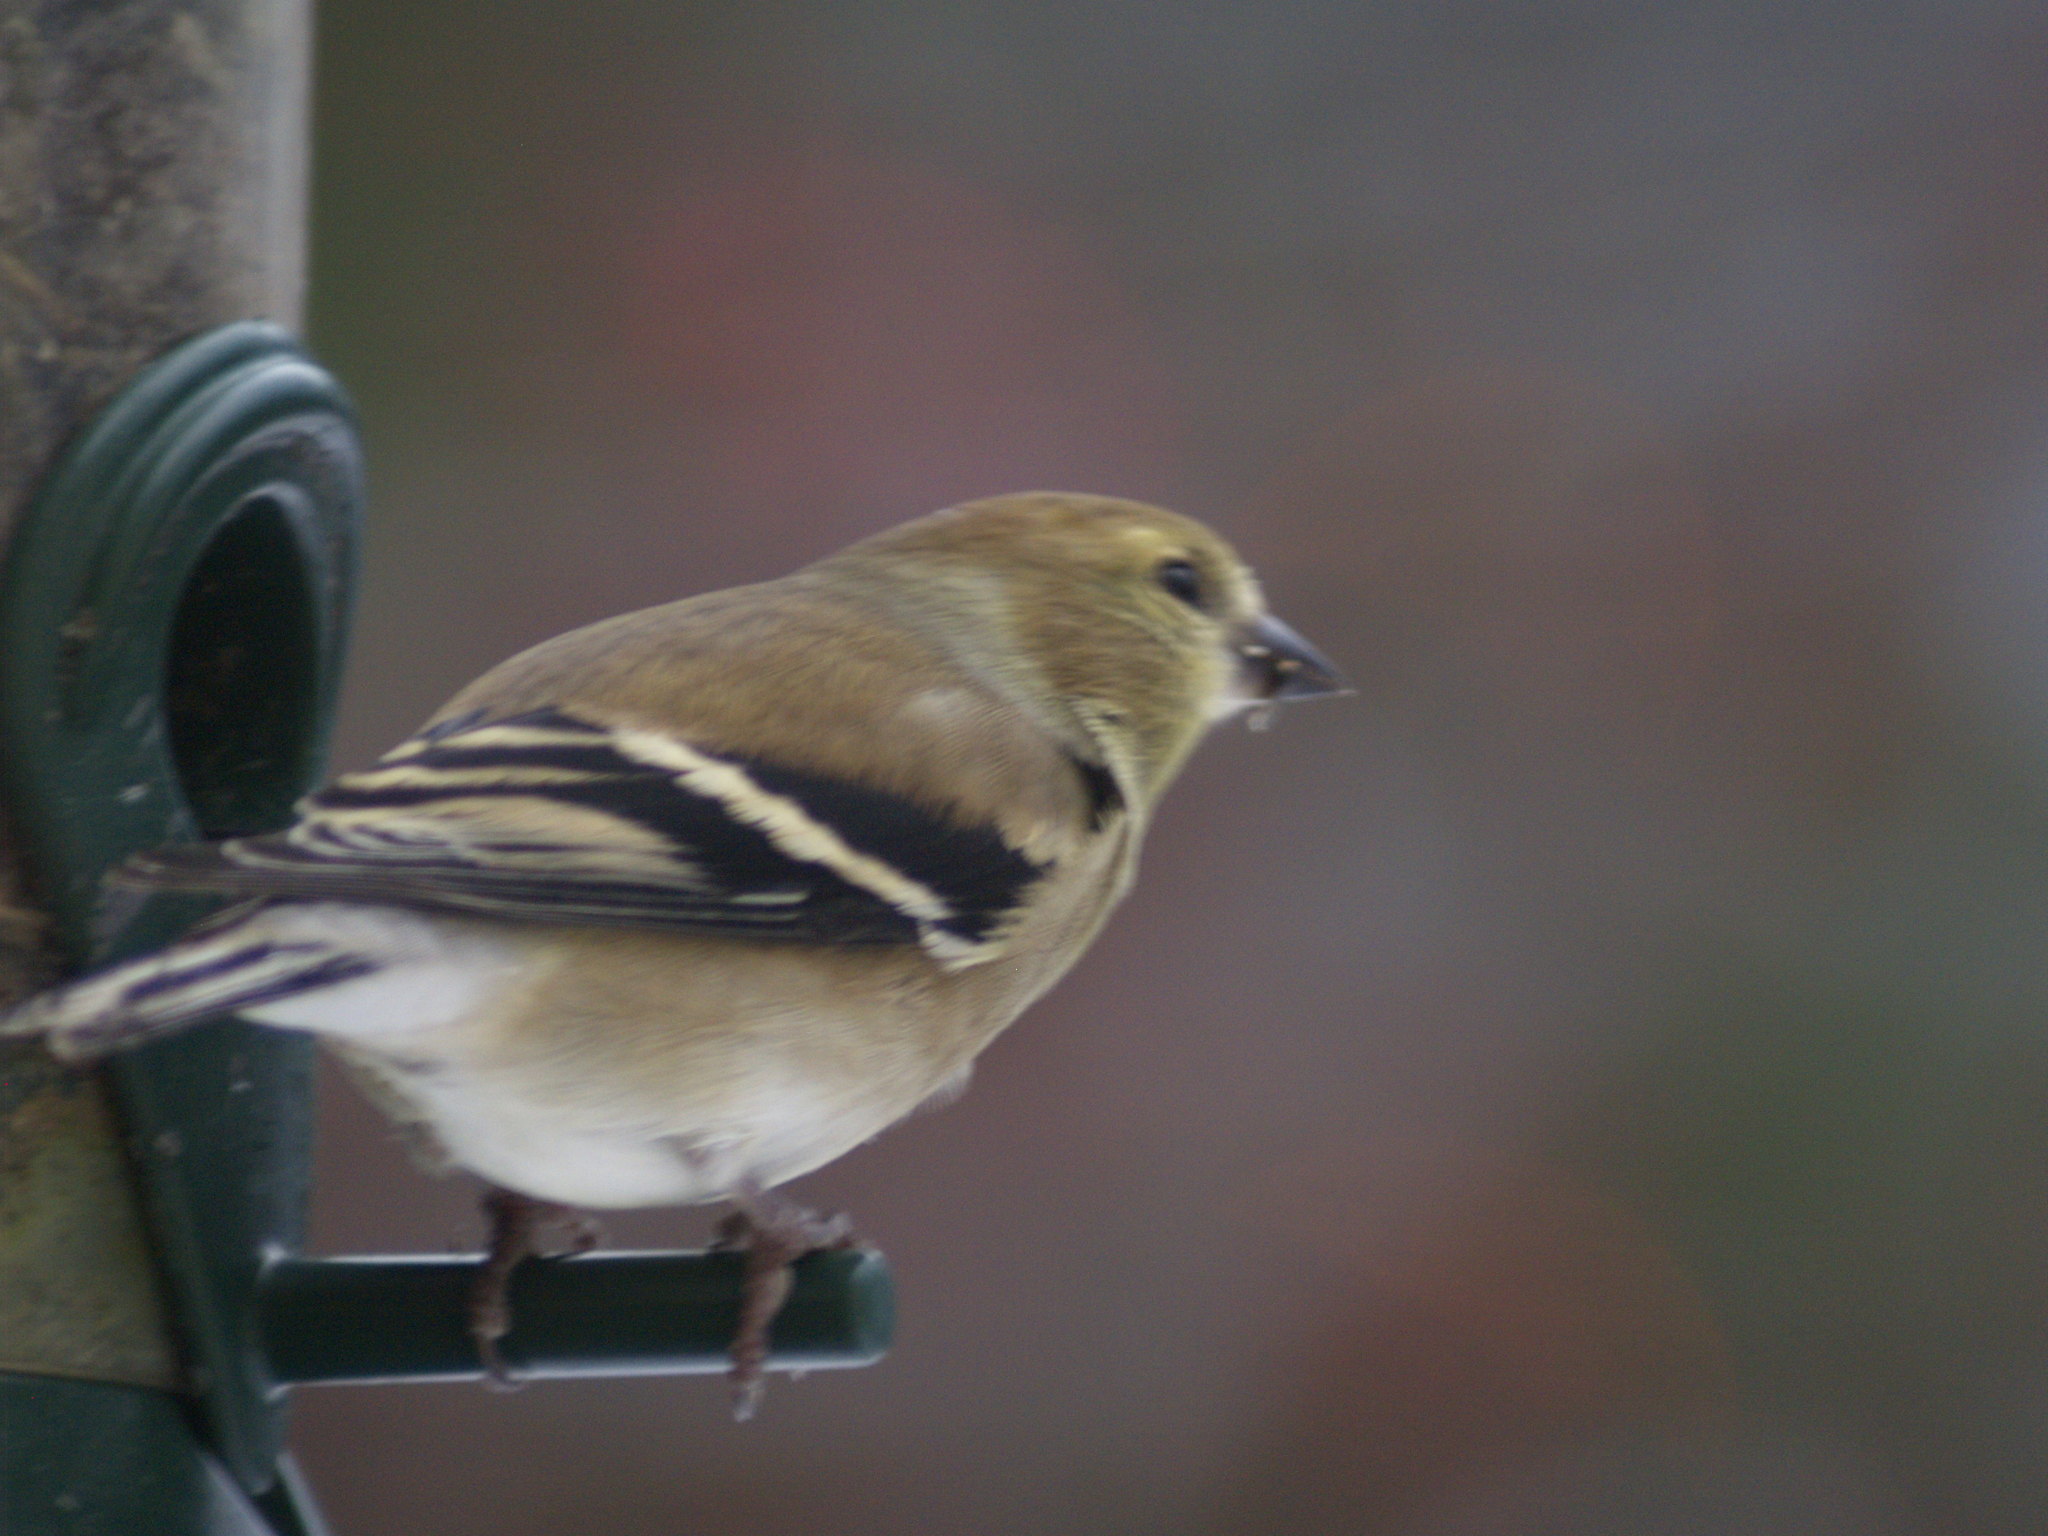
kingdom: Animalia
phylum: Chordata
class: Aves
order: Passeriformes
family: Fringillidae
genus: Spinus
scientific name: Spinus tristis
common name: American goldfinch
